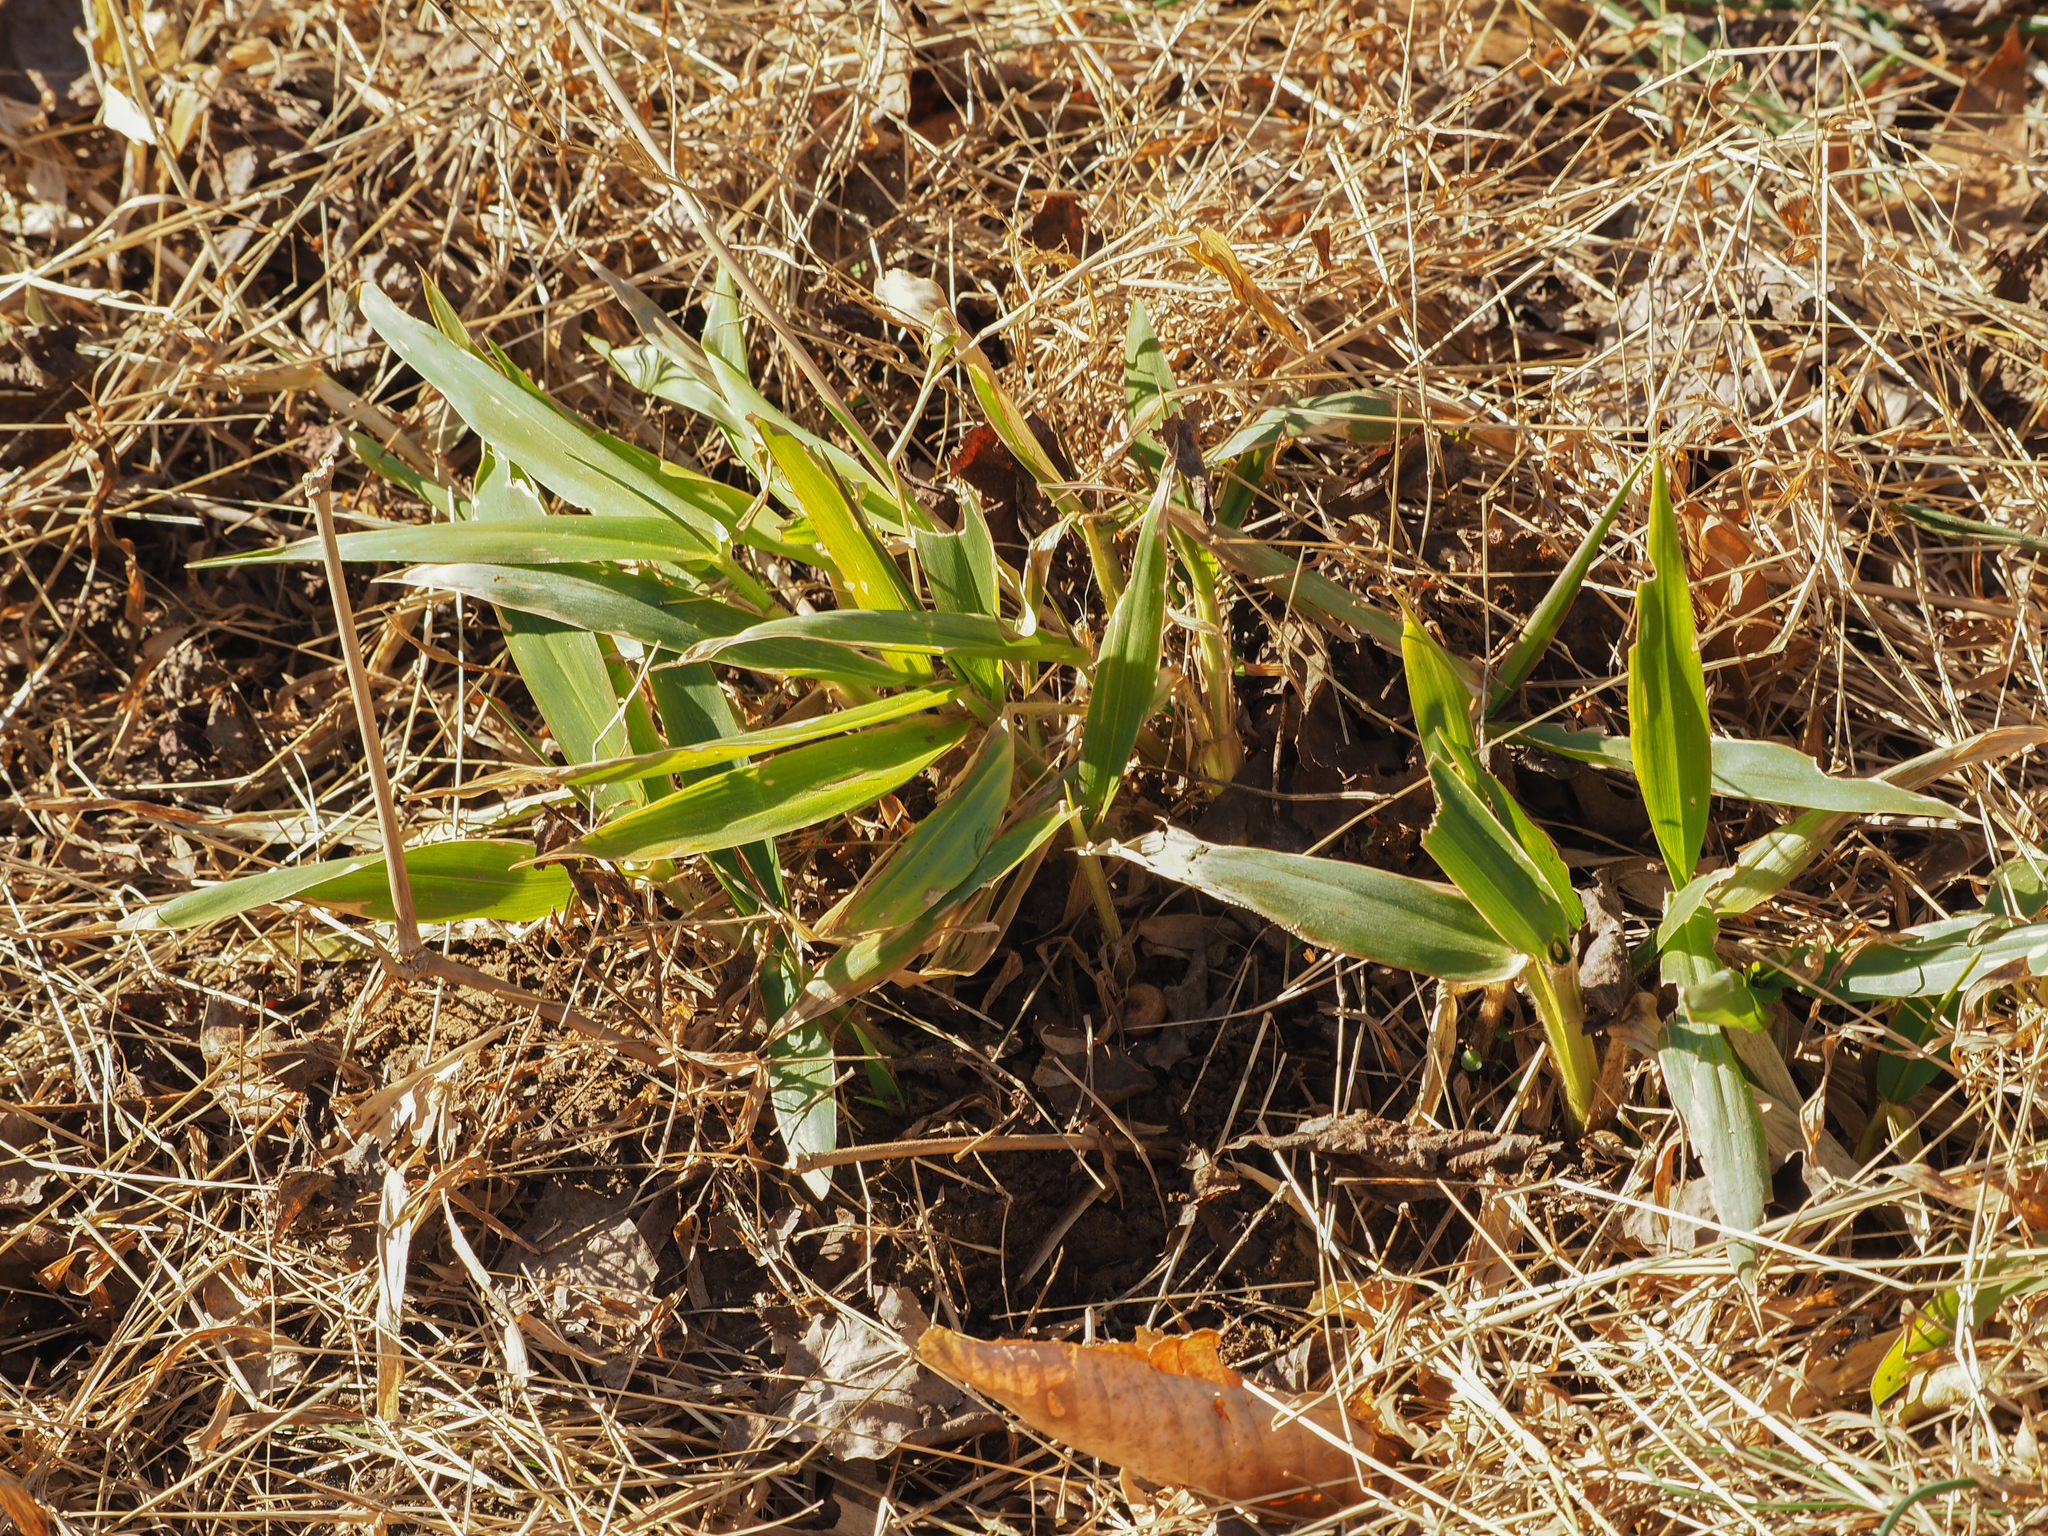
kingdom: Plantae
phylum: Tracheophyta
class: Liliopsida
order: Poales
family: Poaceae
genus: Dichanthelium
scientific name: Dichanthelium clandestinum
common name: Deer-tongue grass
